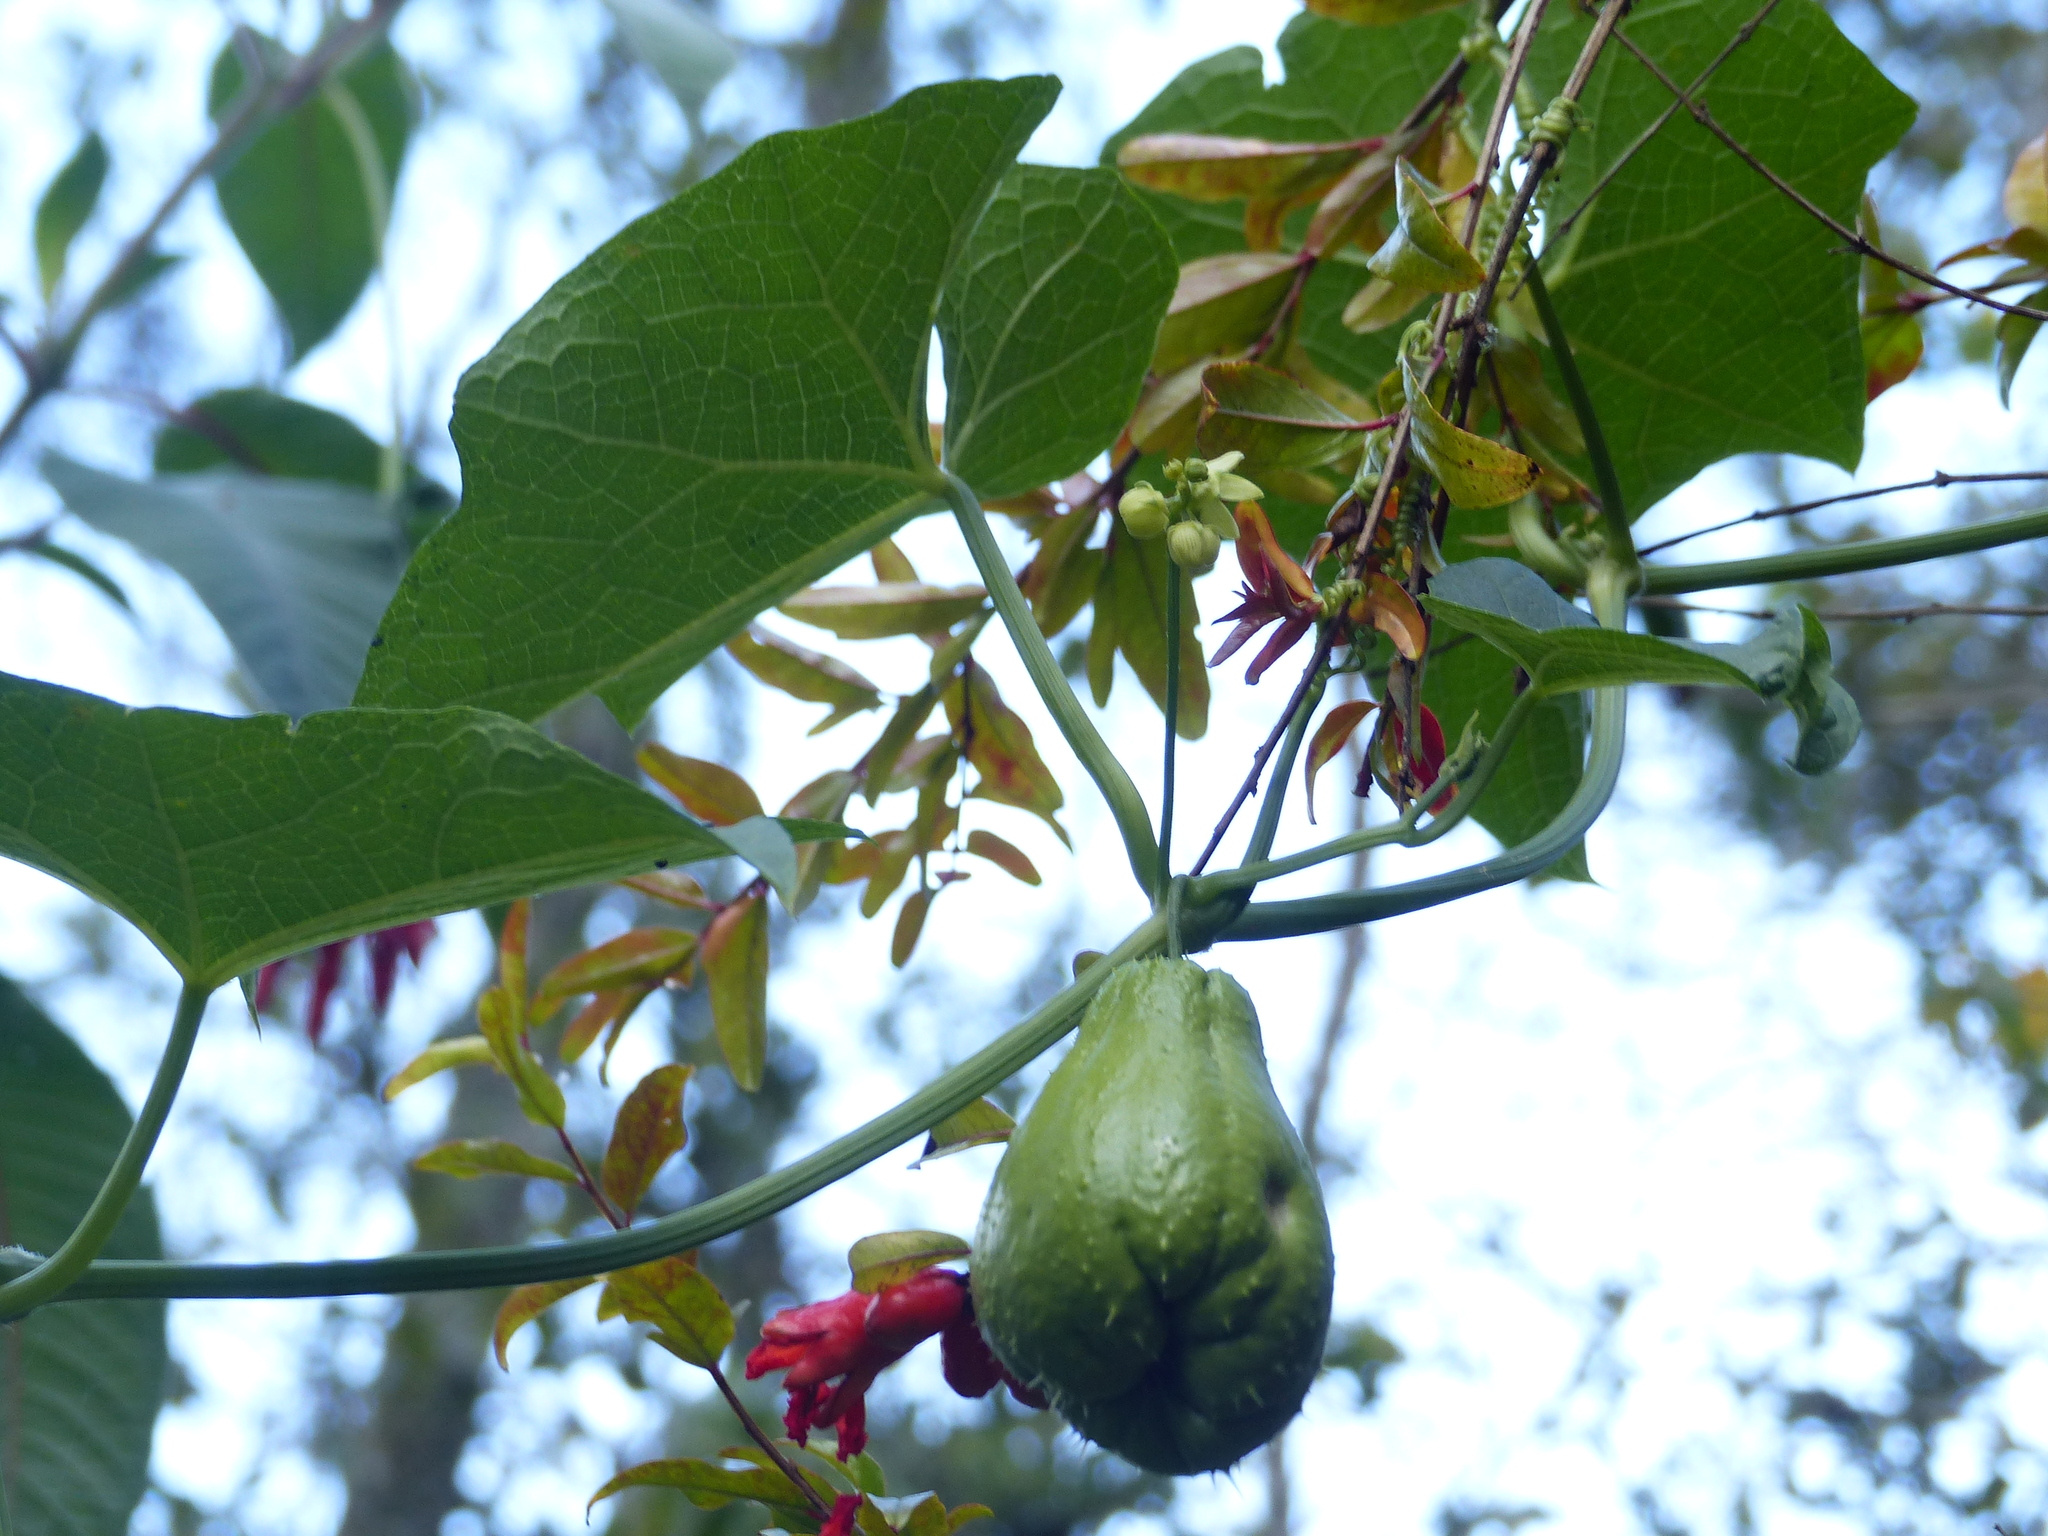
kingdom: Plantae
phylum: Tracheophyta
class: Magnoliopsida
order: Cucurbitales
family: Cucurbitaceae
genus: Sechium
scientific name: Sechium edule
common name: Chayote
